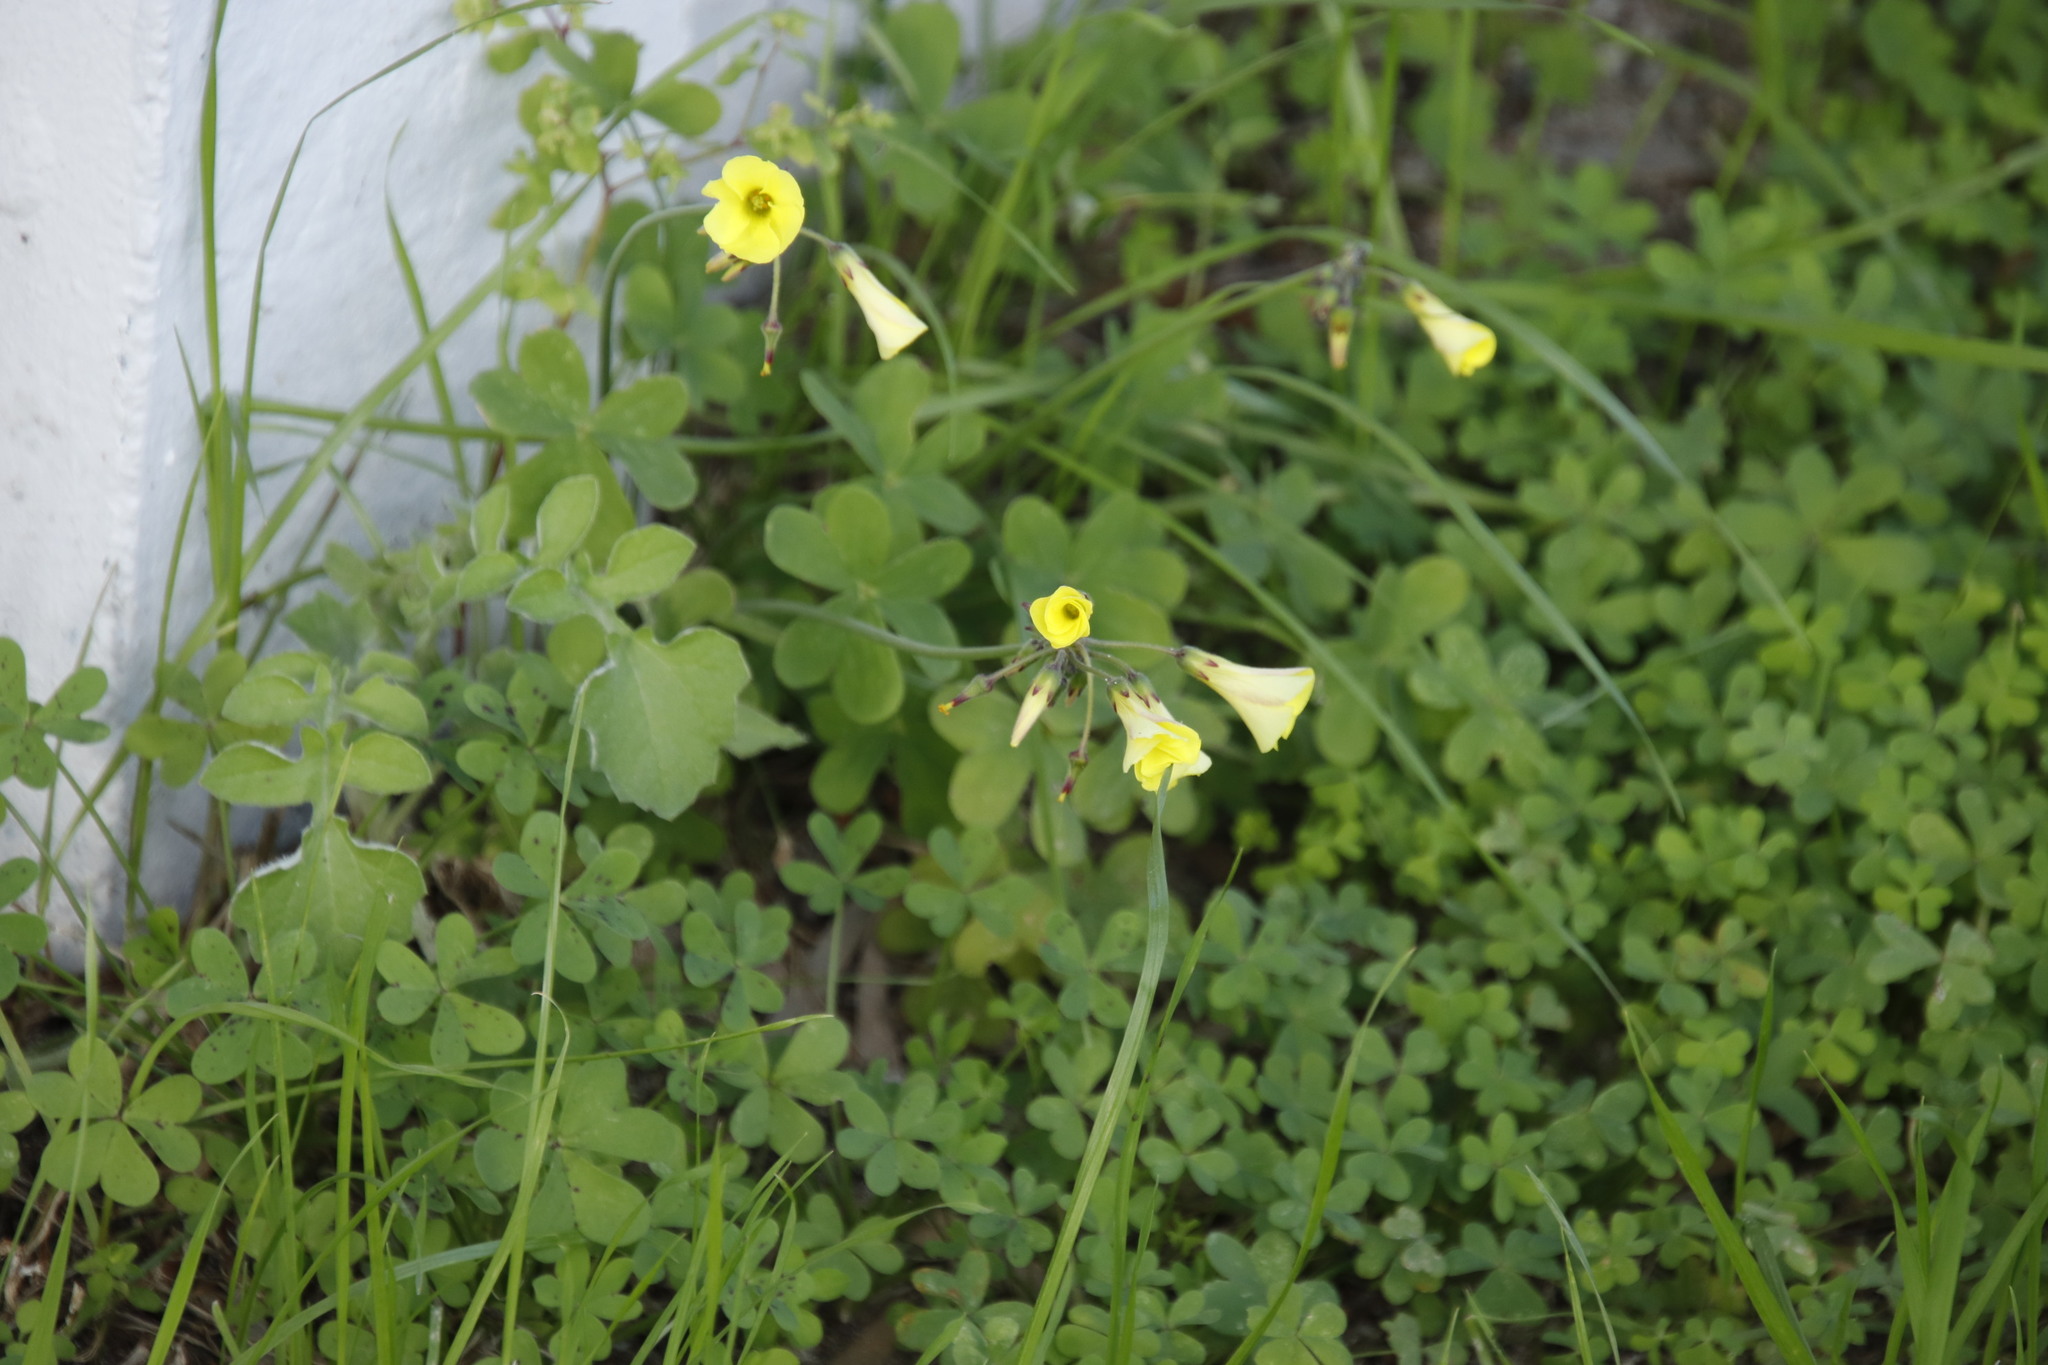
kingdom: Plantae
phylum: Tracheophyta
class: Magnoliopsida
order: Oxalidales
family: Oxalidaceae
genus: Oxalis
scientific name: Oxalis pes-caprae
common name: Bermuda-buttercup
